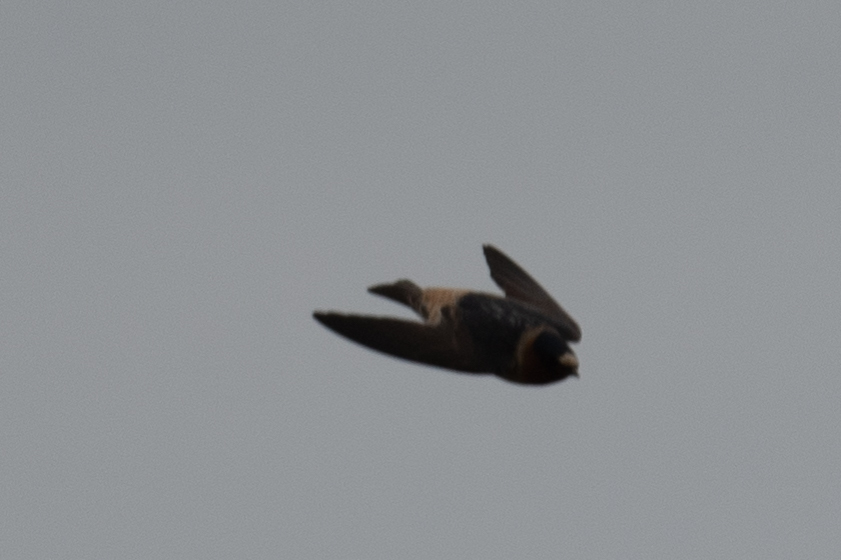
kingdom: Animalia
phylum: Chordata
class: Aves
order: Passeriformes
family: Hirundinidae
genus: Petrochelidon
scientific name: Petrochelidon pyrrhonota
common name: American cliff swallow
